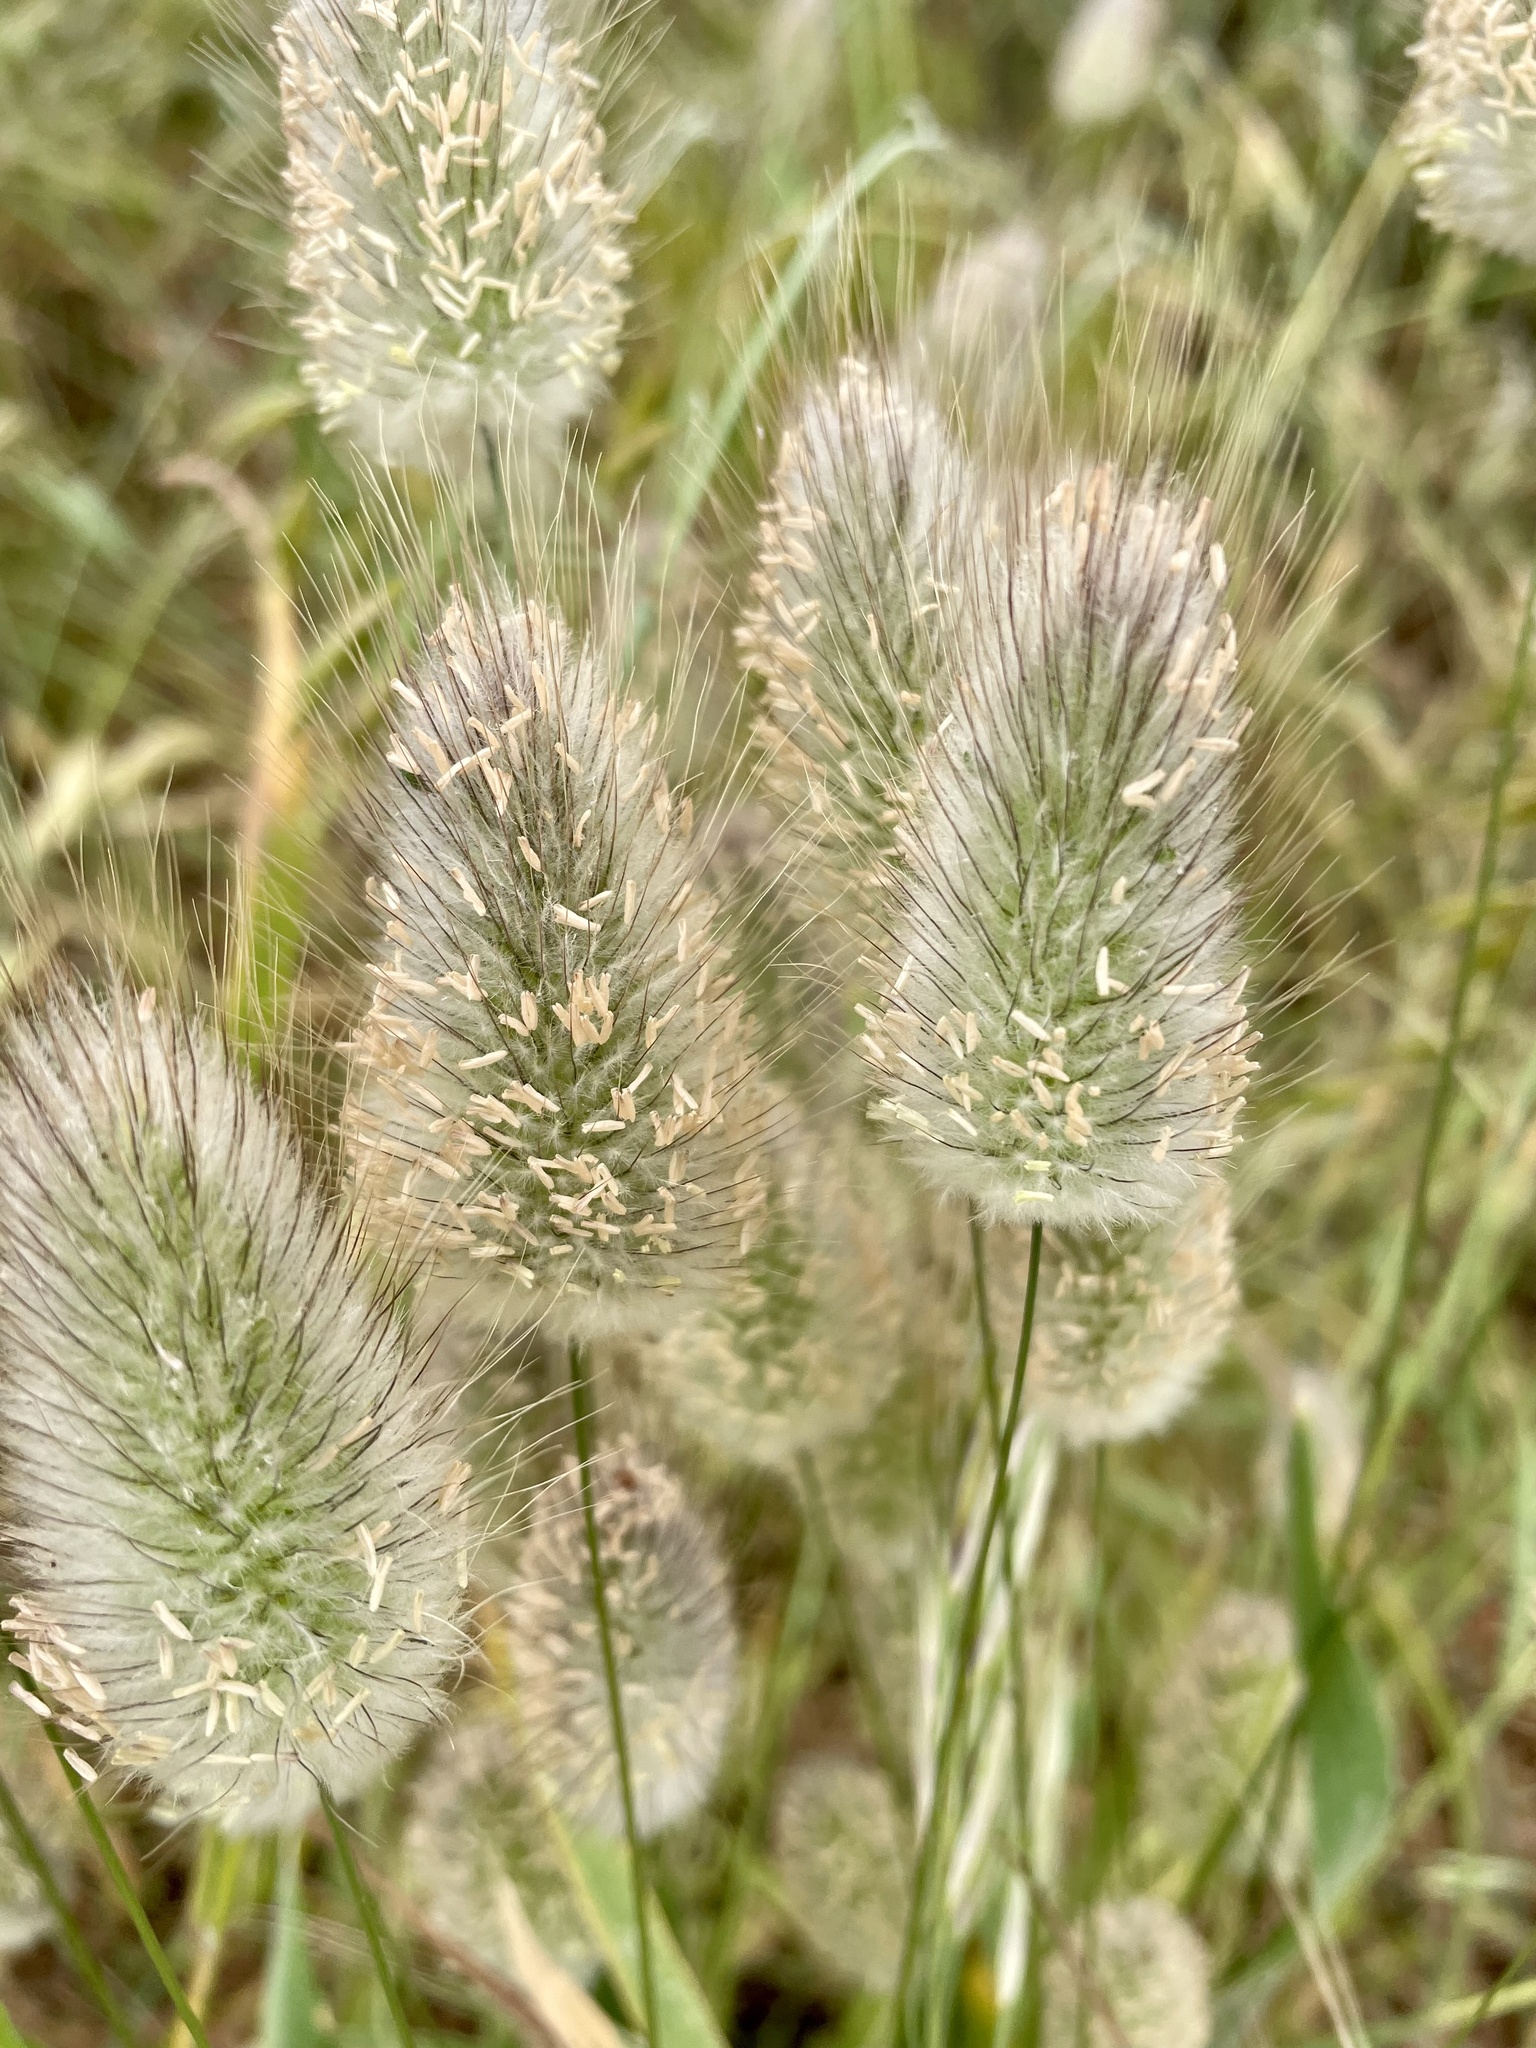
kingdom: Plantae
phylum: Tracheophyta
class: Liliopsida
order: Poales
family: Poaceae
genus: Lagurus
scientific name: Lagurus ovatus
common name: Hare's-tail
